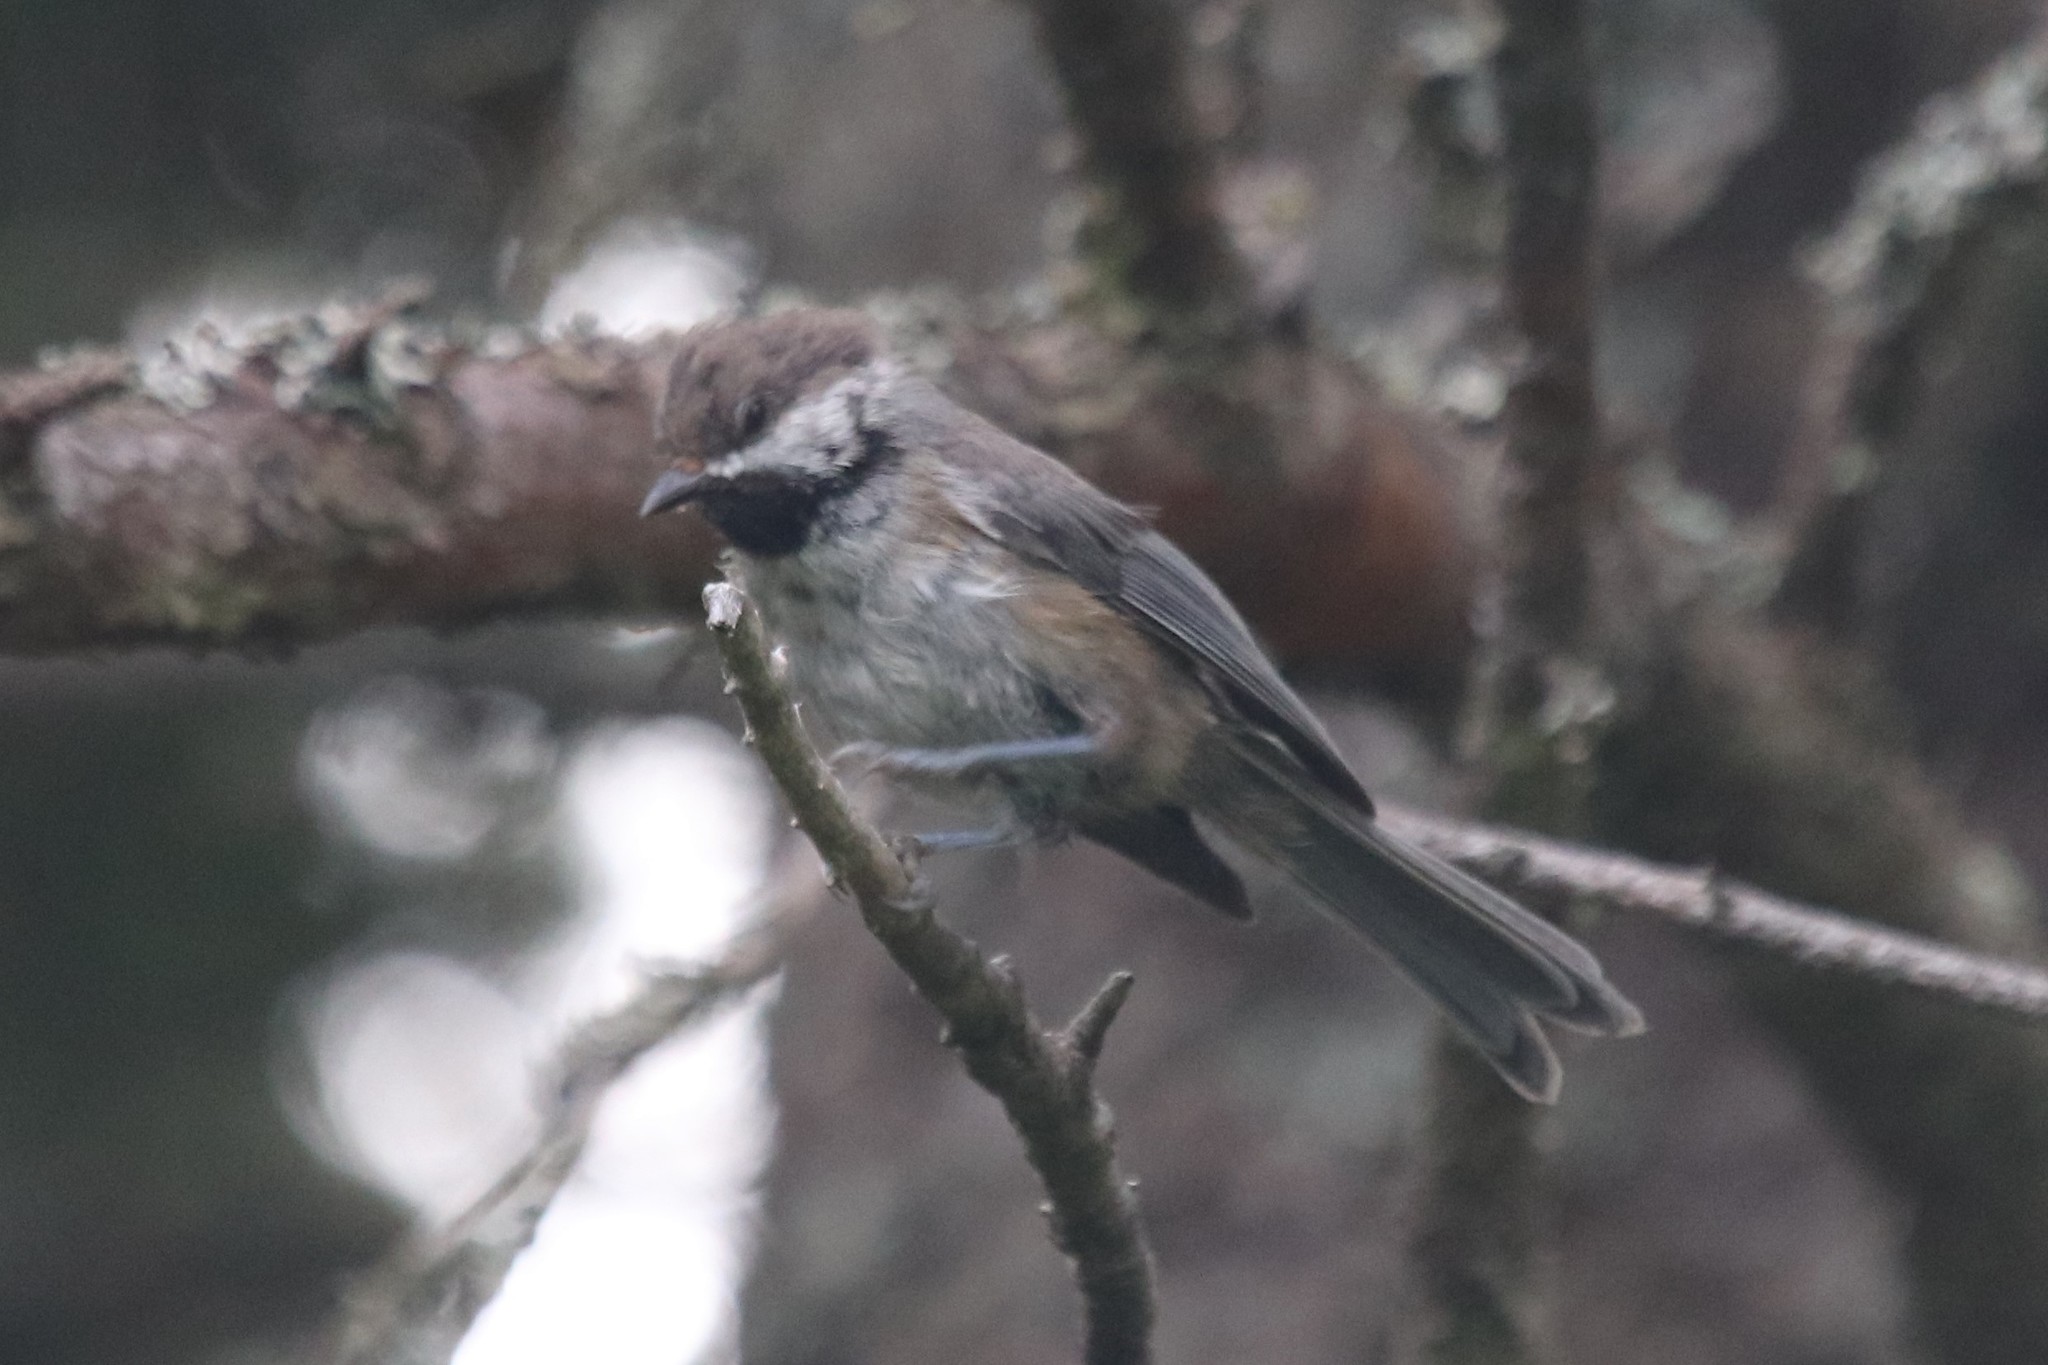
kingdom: Animalia
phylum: Chordata
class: Aves
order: Passeriformes
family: Paridae
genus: Poecile
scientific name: Poecile hudsonicus
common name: Boreal chickadee
